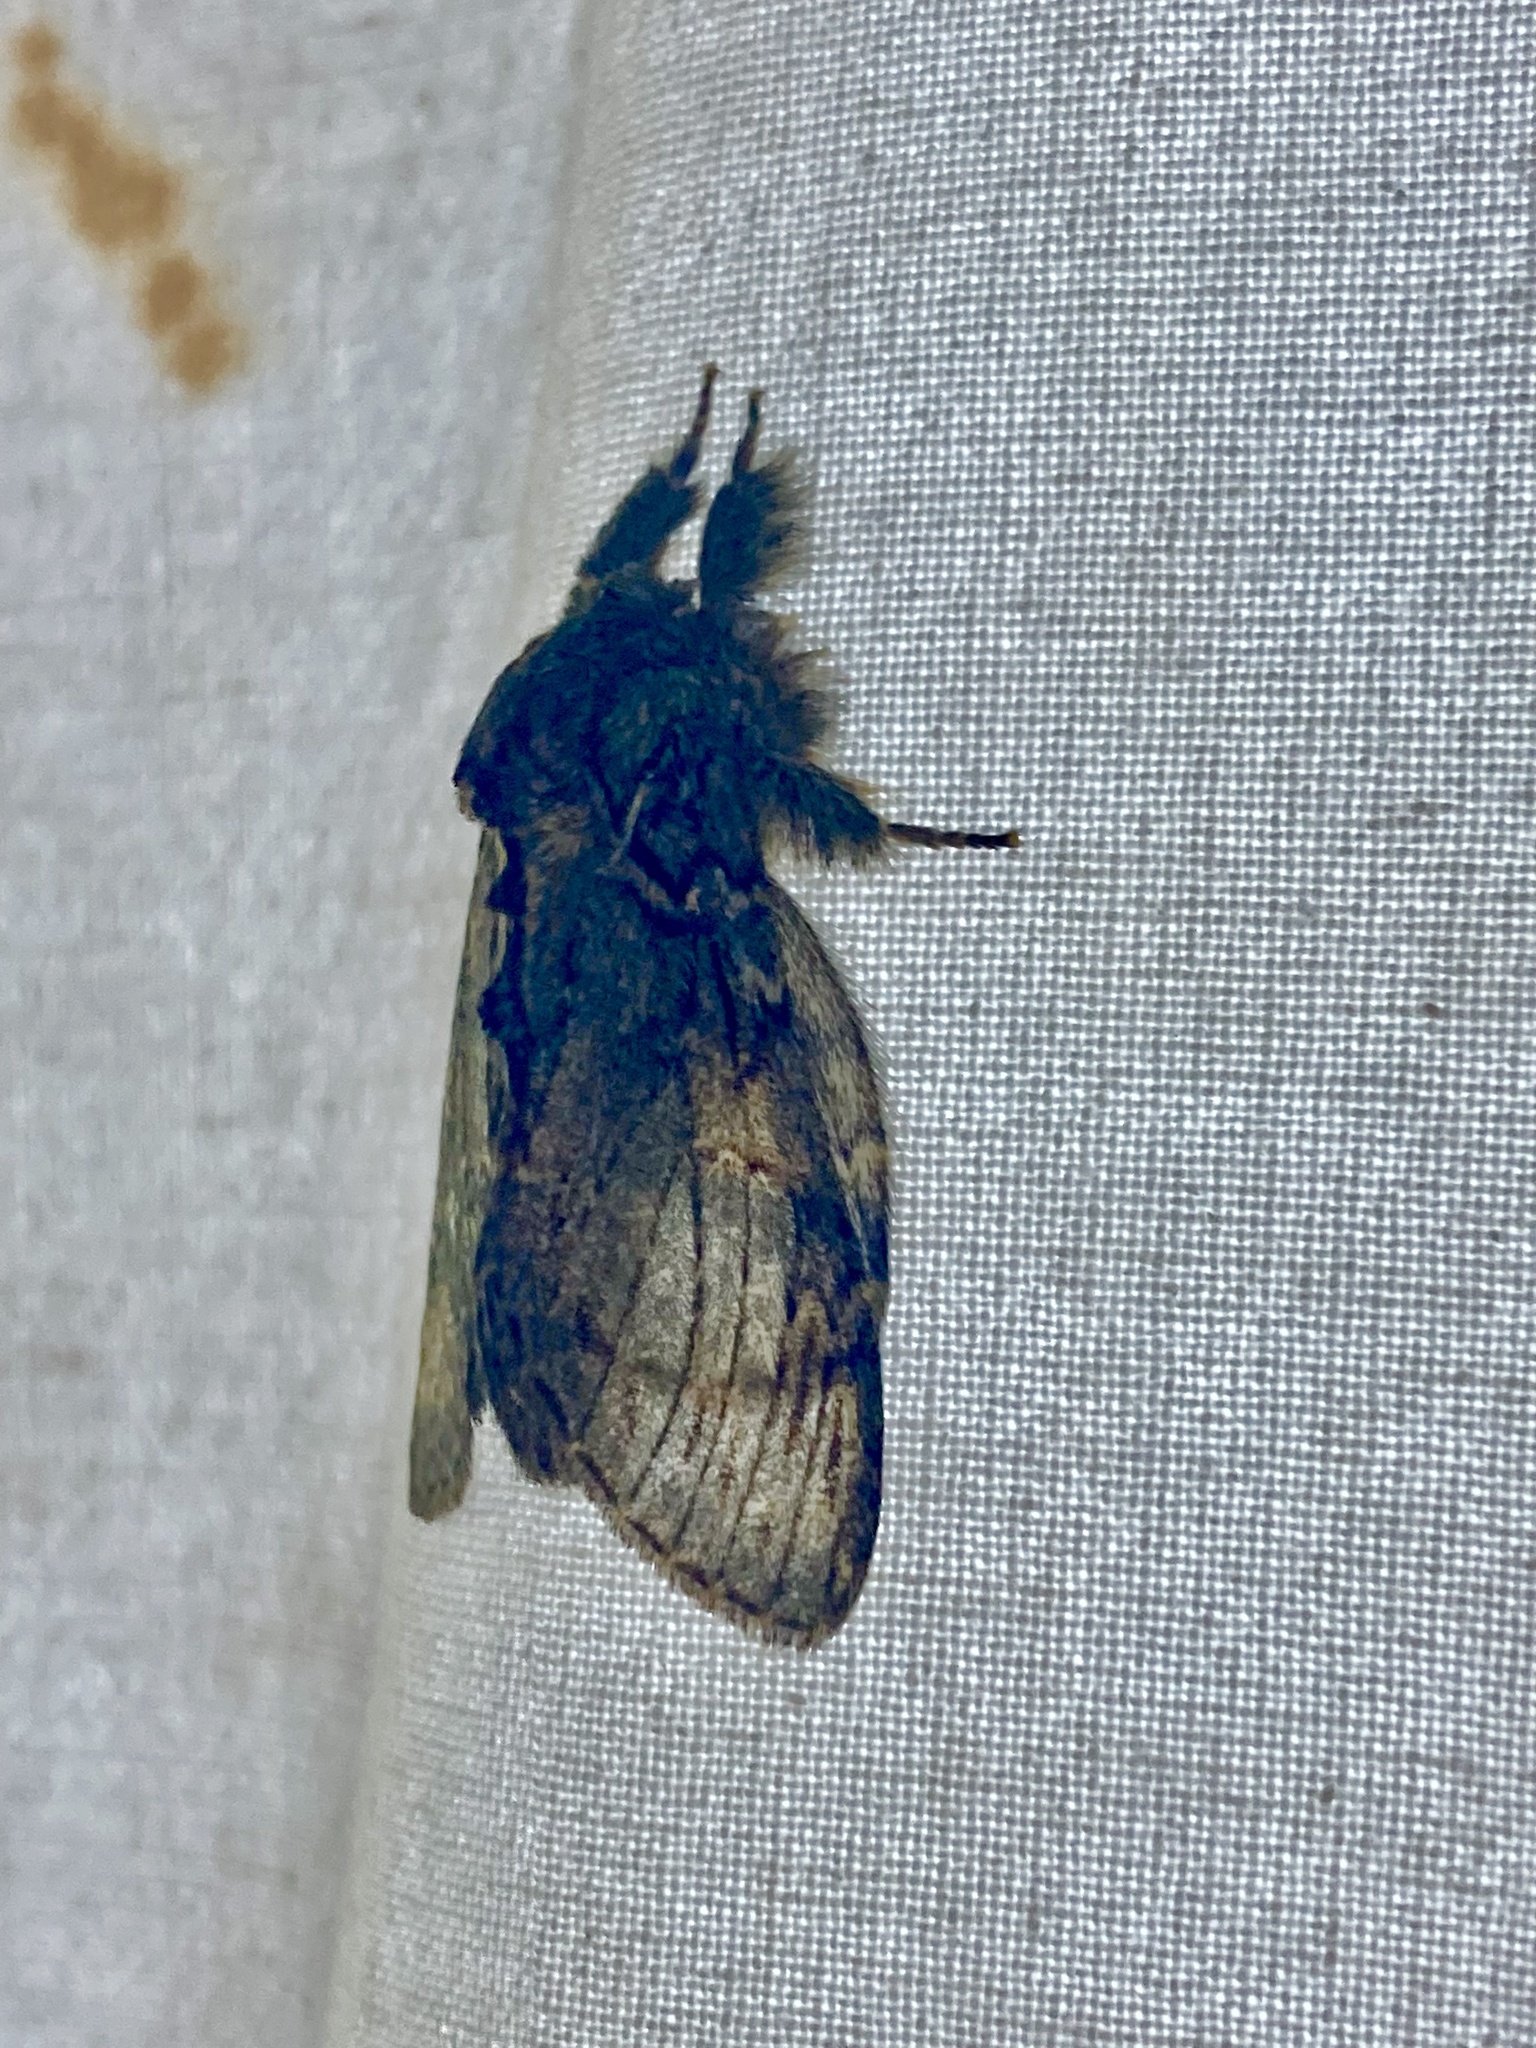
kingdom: Animalia
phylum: Arthropoda
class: Insecta
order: Lepidoptera
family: Notodontidae
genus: Peridea
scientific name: Peridea anceps
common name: Great prominent
